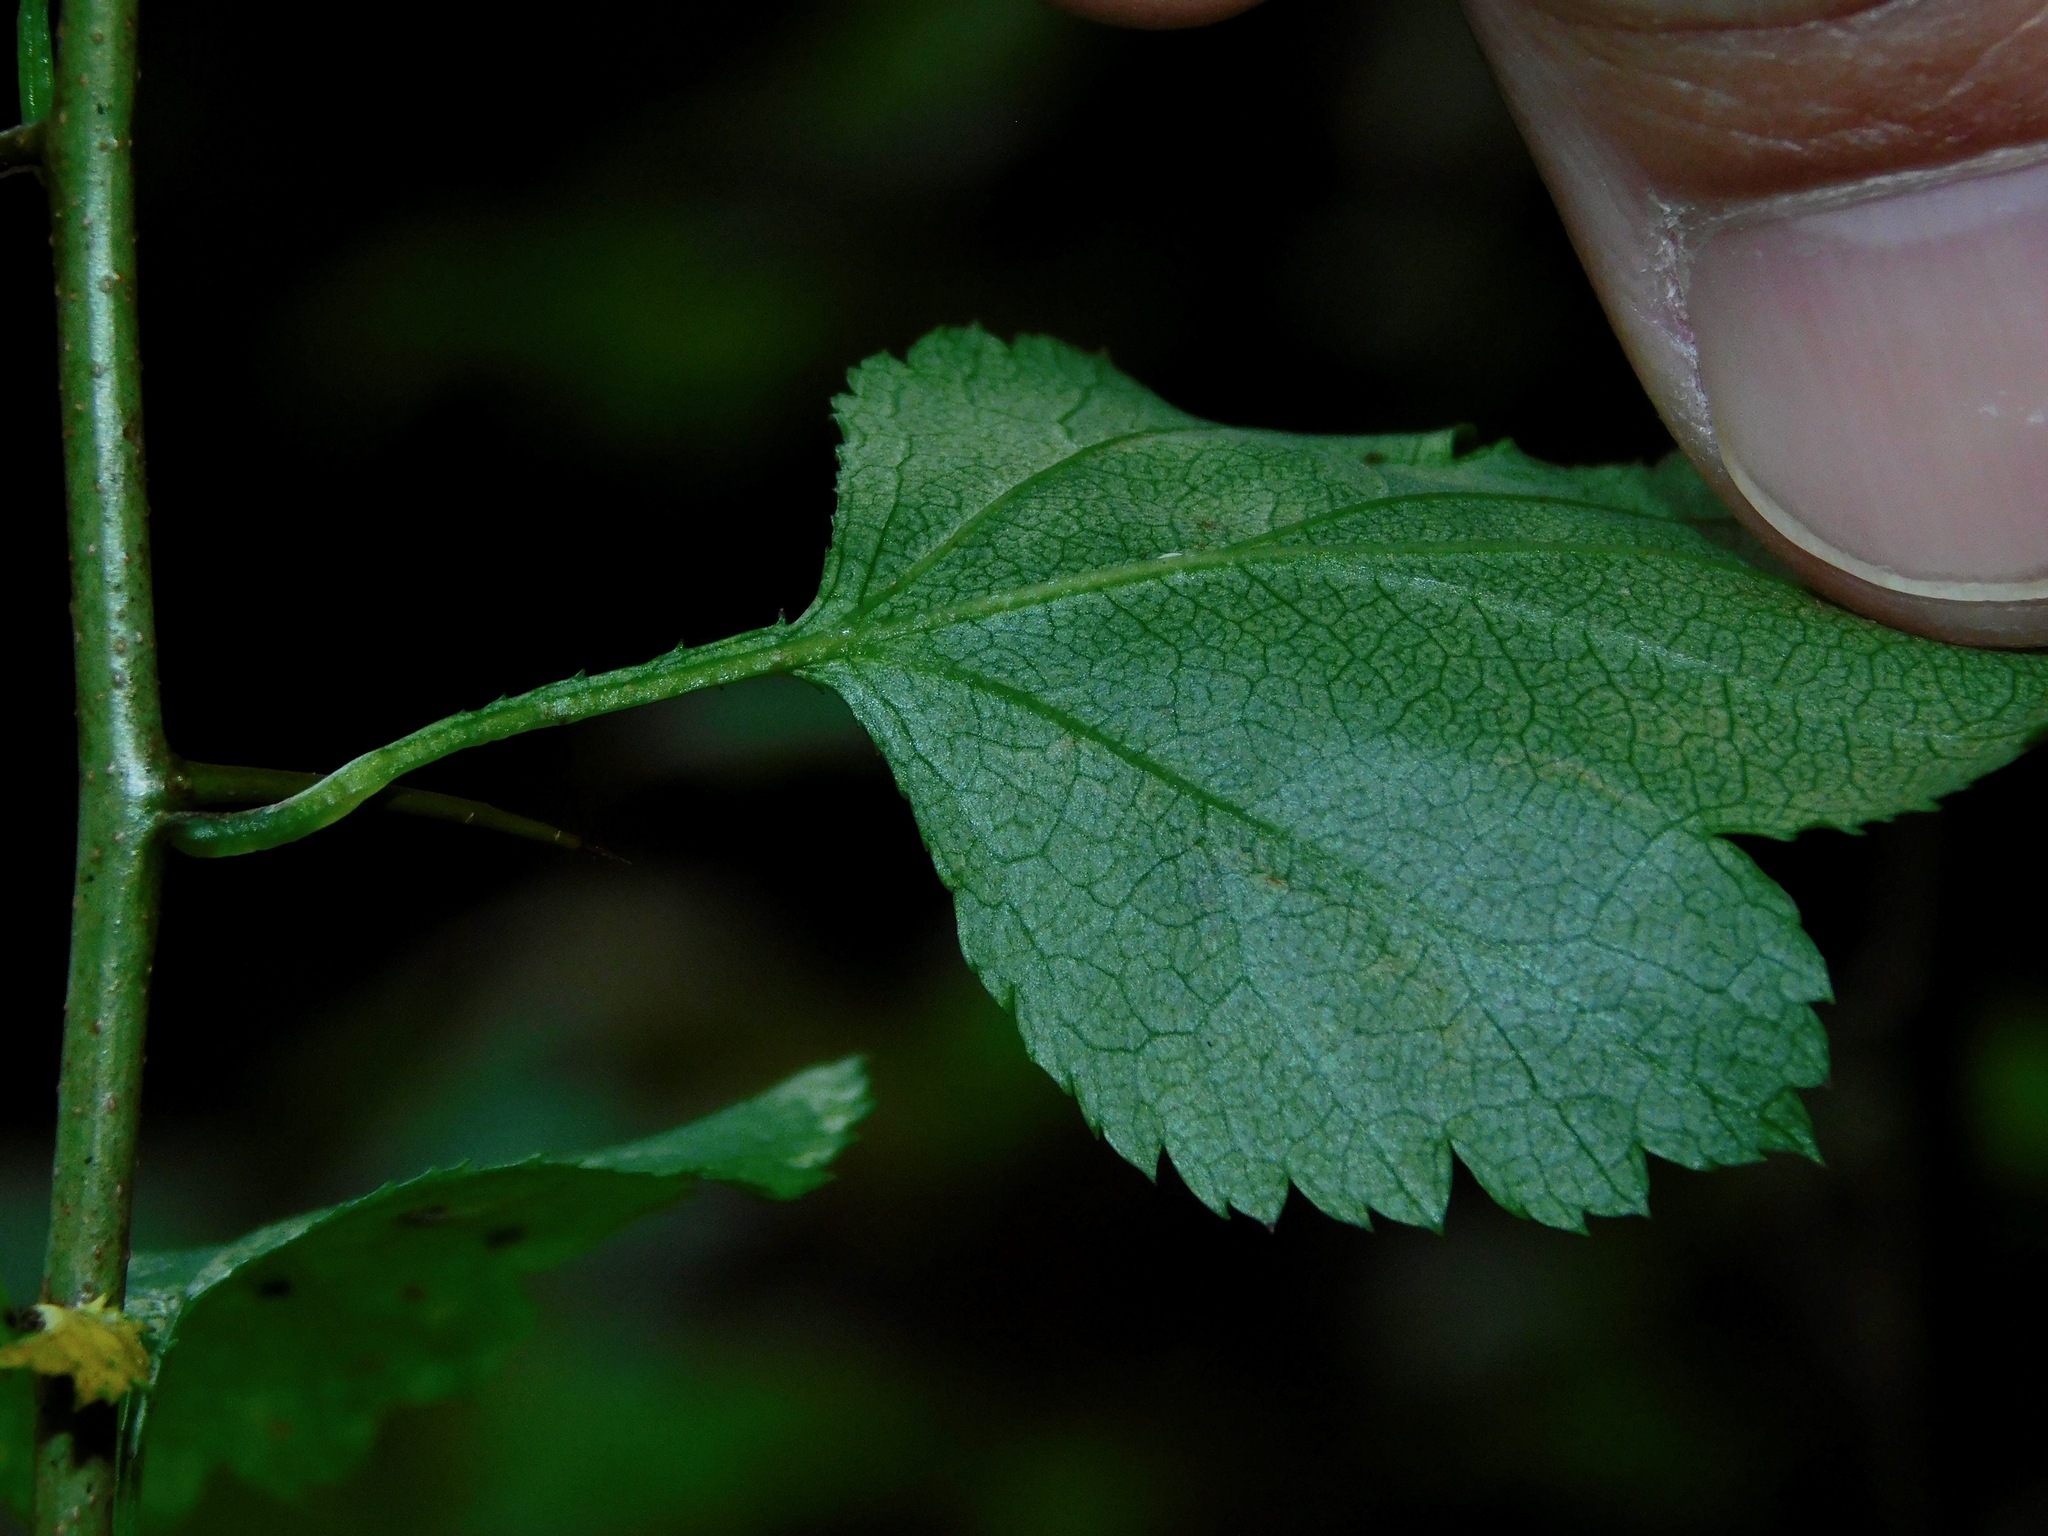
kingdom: Plantae
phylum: Tracheophyta
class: Magnoliopsida
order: Rosales
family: Rosaceae
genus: Crataegus
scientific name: Crataegus phaenopyrum
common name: Washington hawthorn
